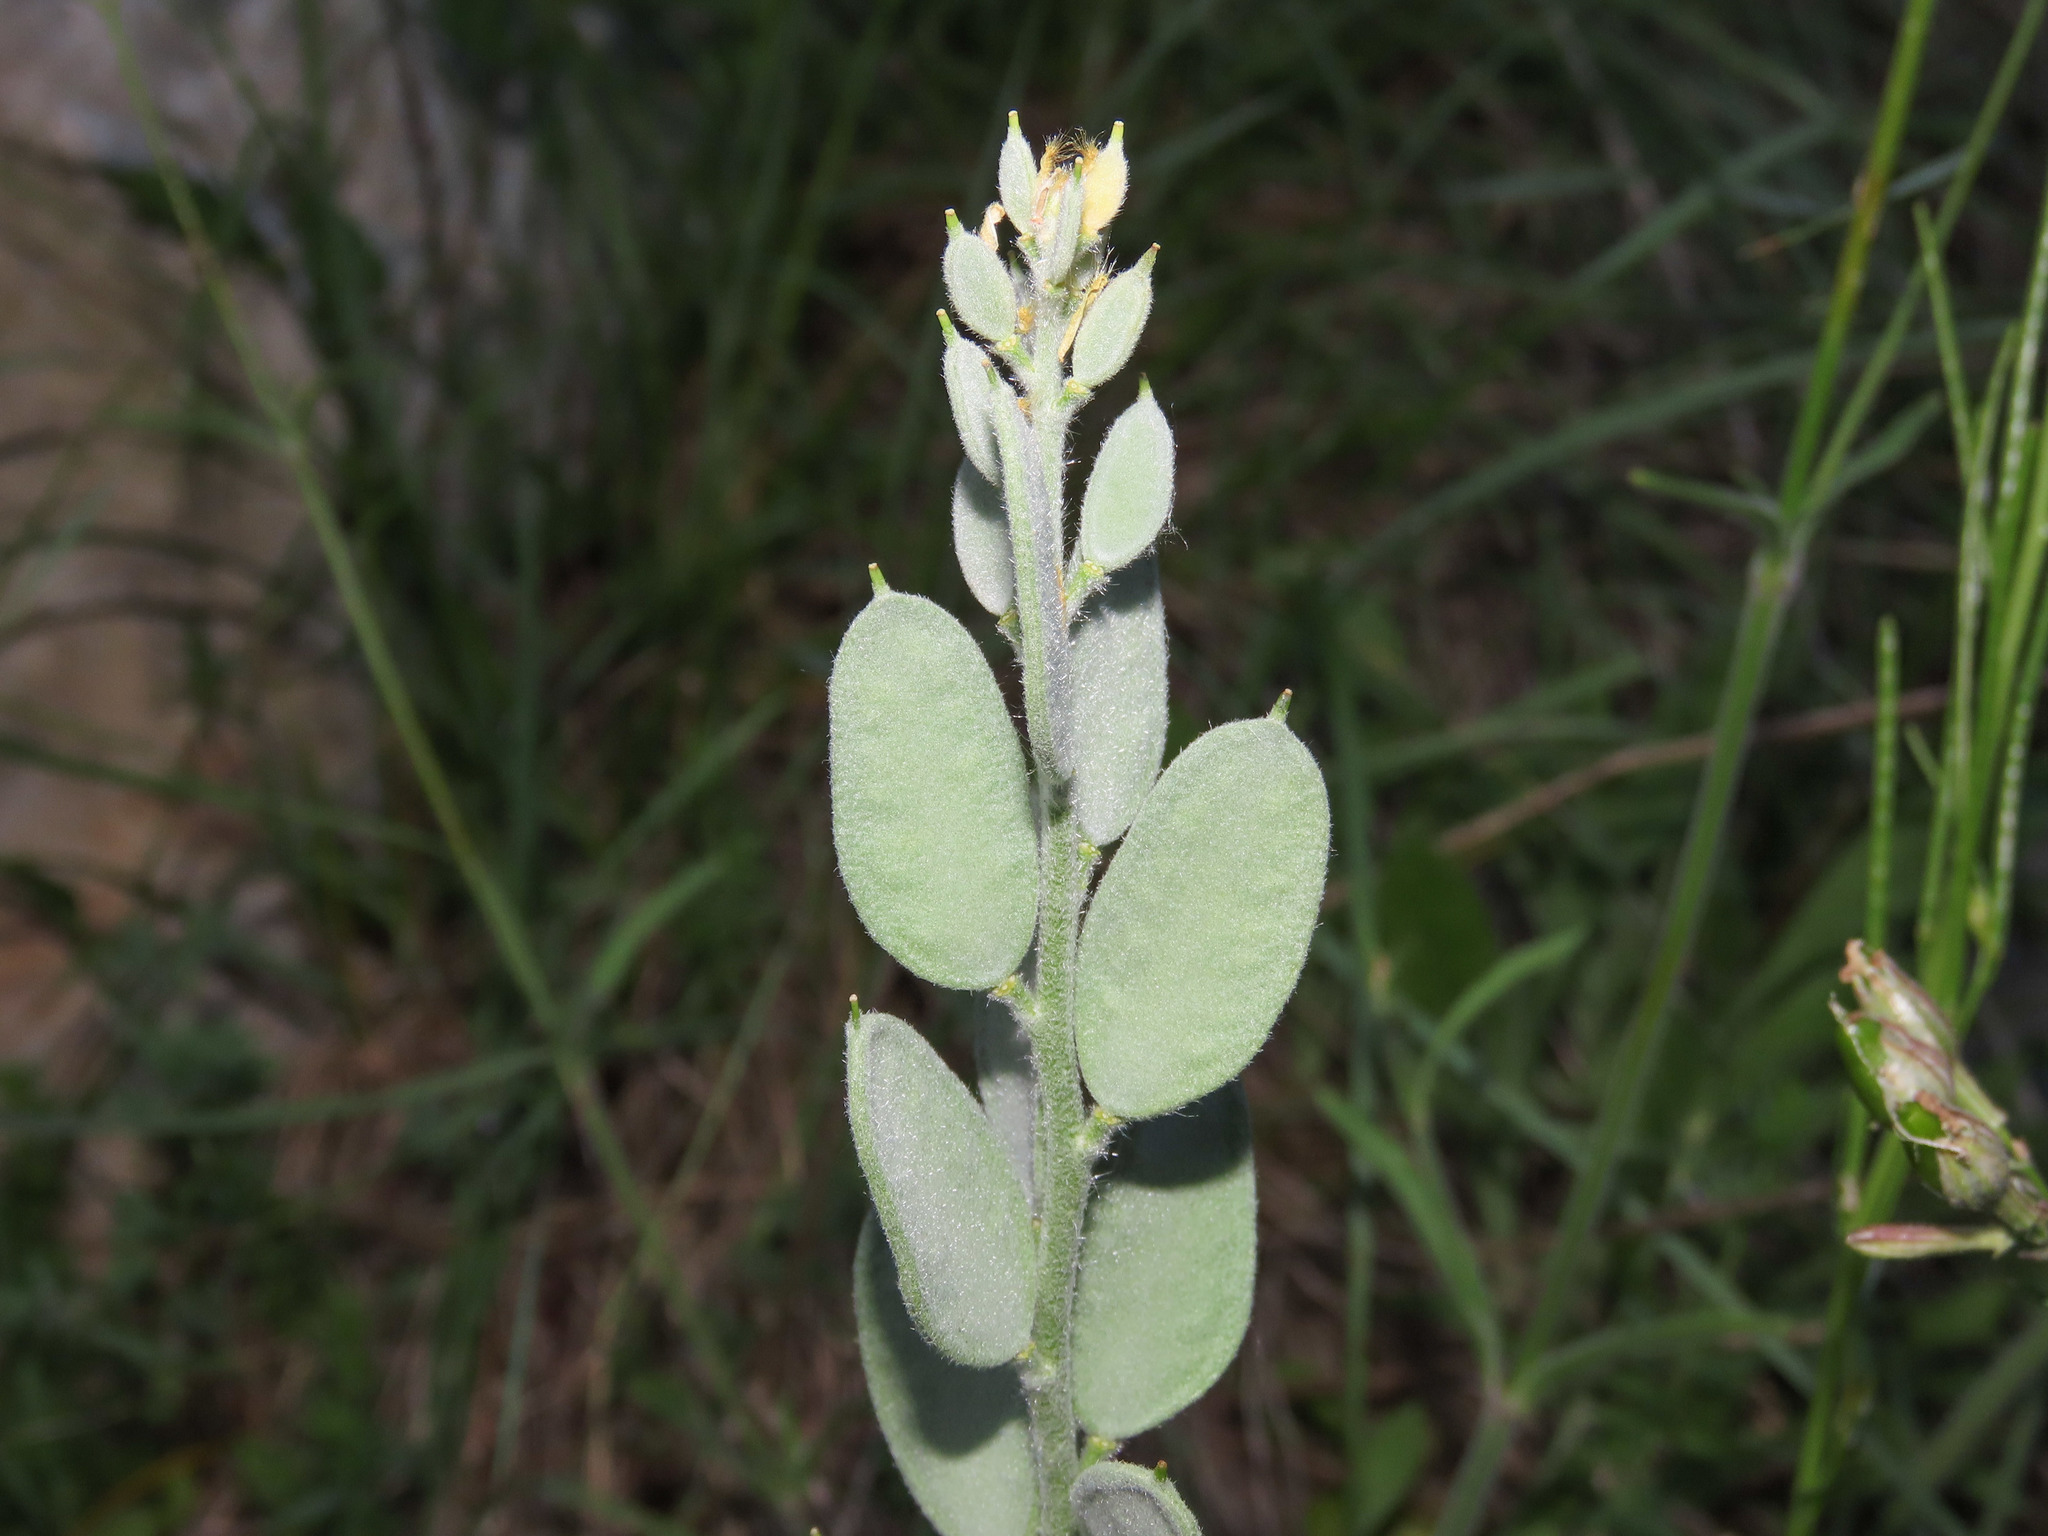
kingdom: Plantae
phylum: Tracheophyta
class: Magnoliopsida
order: Brassicales
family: Brassicaceae
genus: Fibigia
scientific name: Fibigia clypeata
